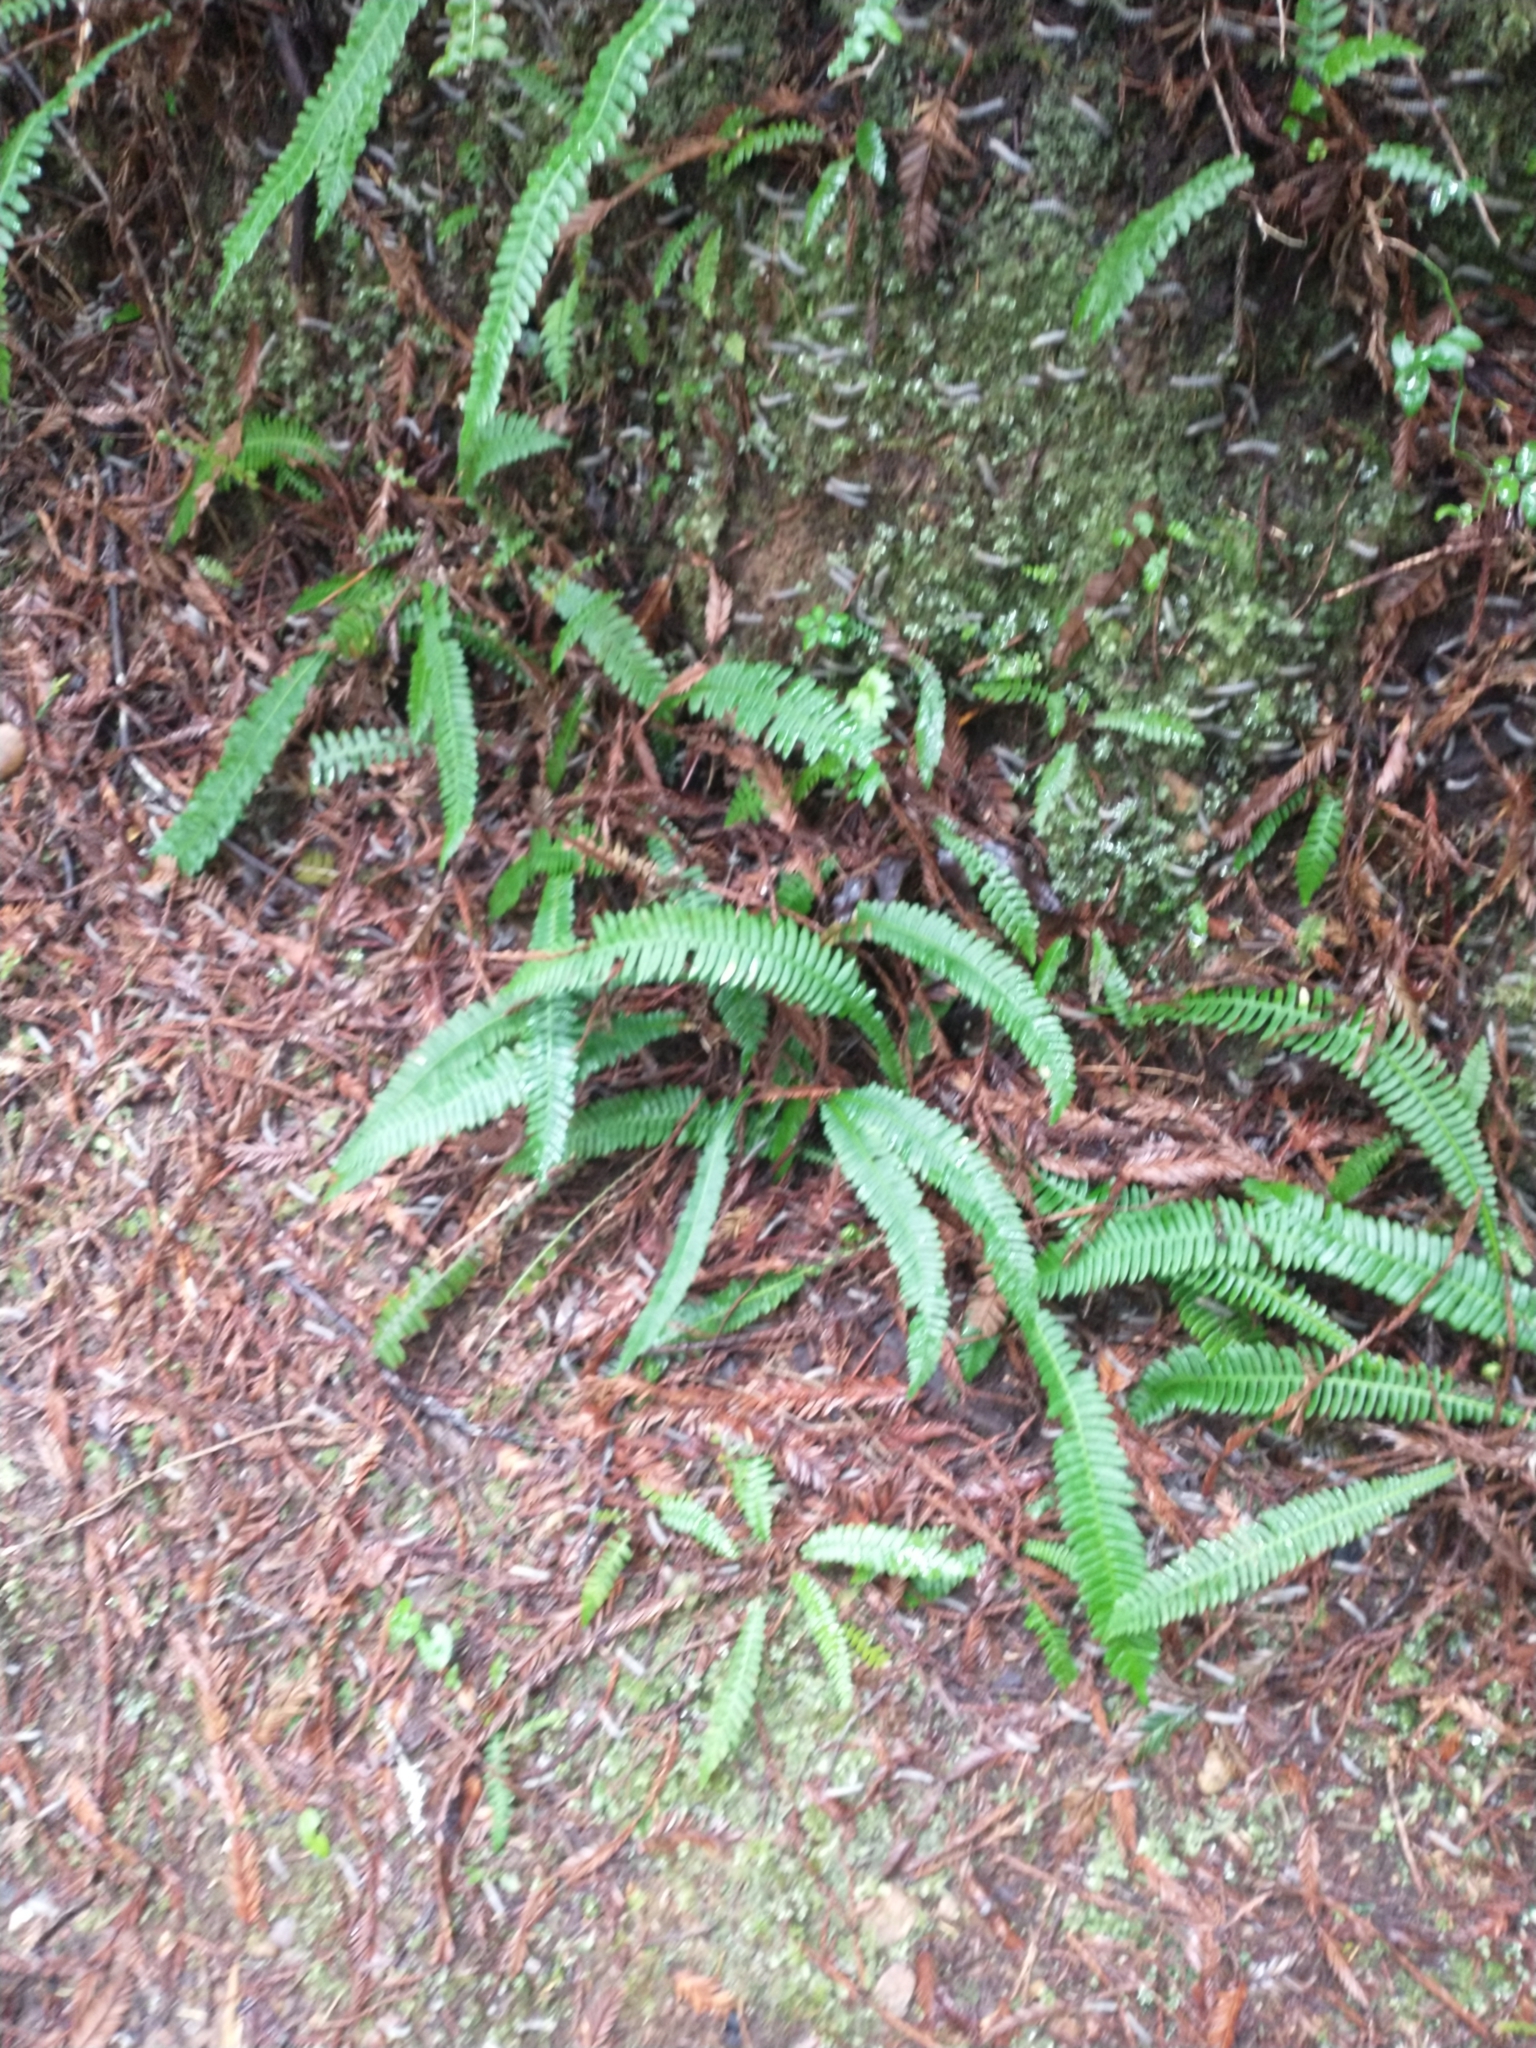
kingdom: Plantae
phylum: Tracheophyta
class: Polypodiopsida
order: Polypodiales
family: Blechnaceae
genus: Struthiopteris
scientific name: Struthiopteris spicant
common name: Deer fern
